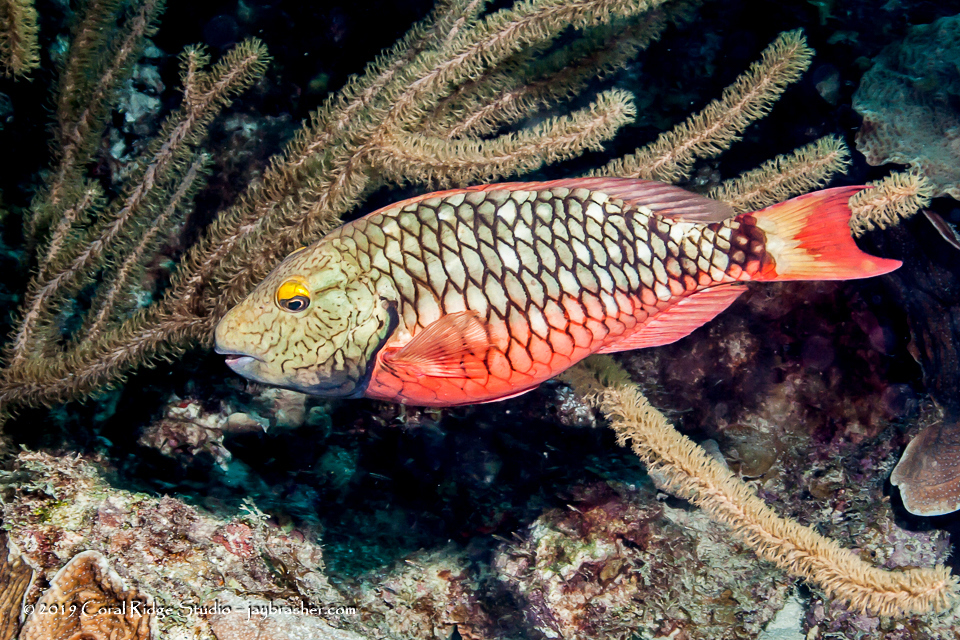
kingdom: Animalia
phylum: Chordata
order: Perciformes
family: Scaridae
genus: Sparisoma
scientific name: Sparisoma viride
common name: Stoplight parrotfish
